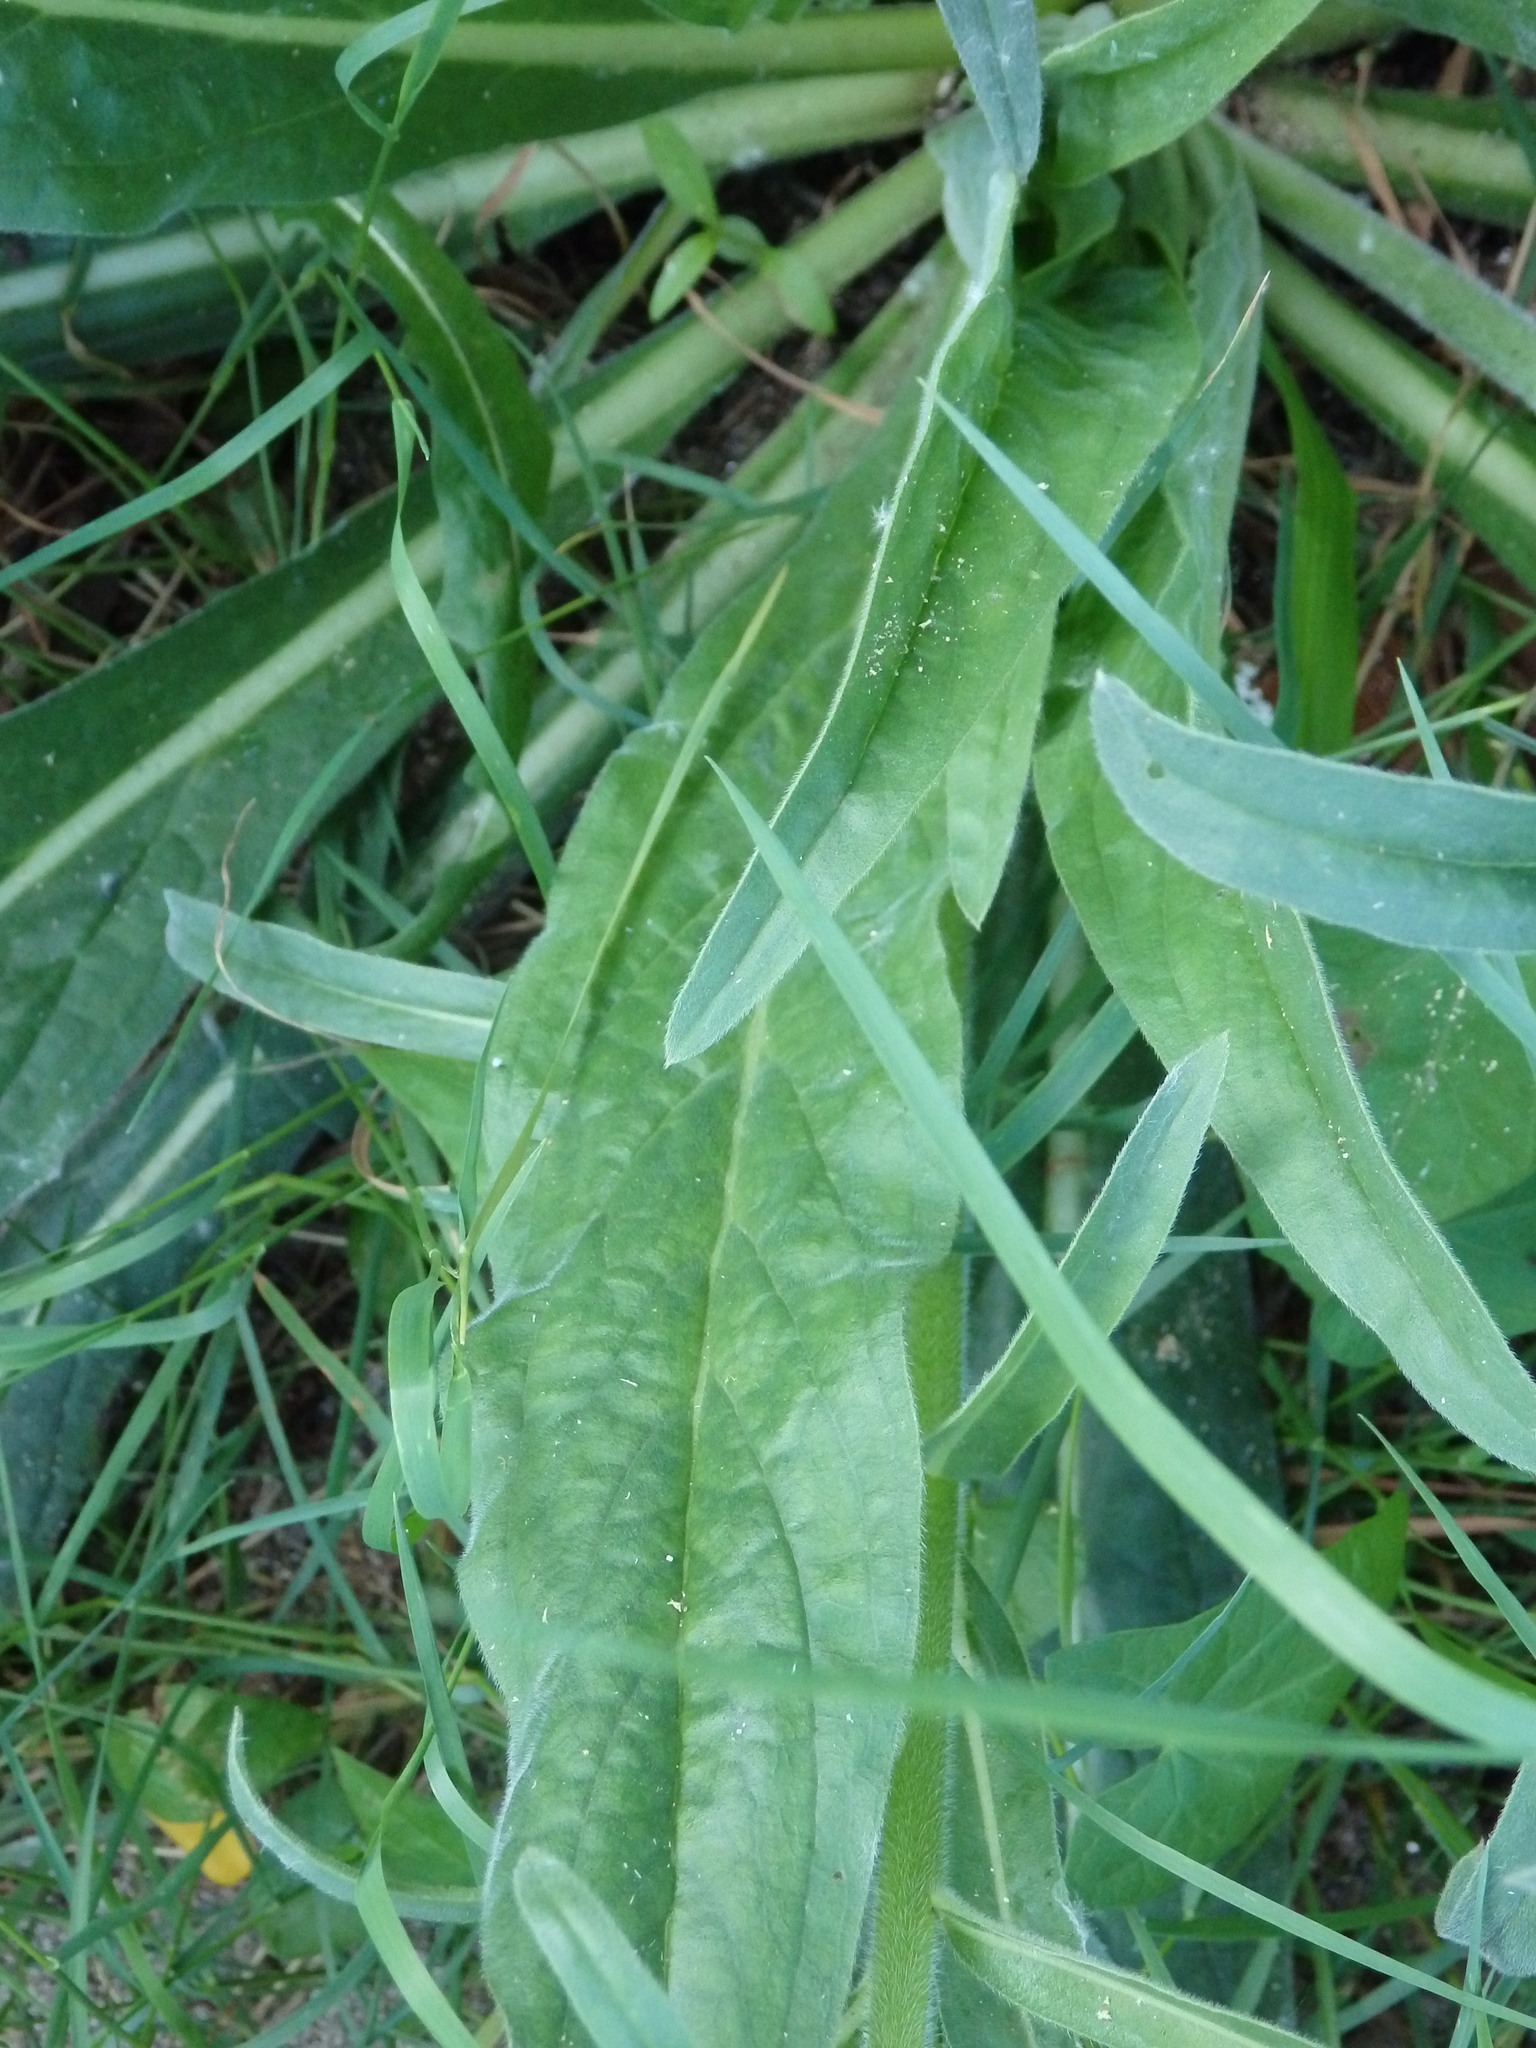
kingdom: Plantae
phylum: Tracheophyta
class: Magnoliopsida
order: Boraginales
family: Boraginaceae
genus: Echium
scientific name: Echium lusitanicum
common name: Violet-vein viper's bugloss
